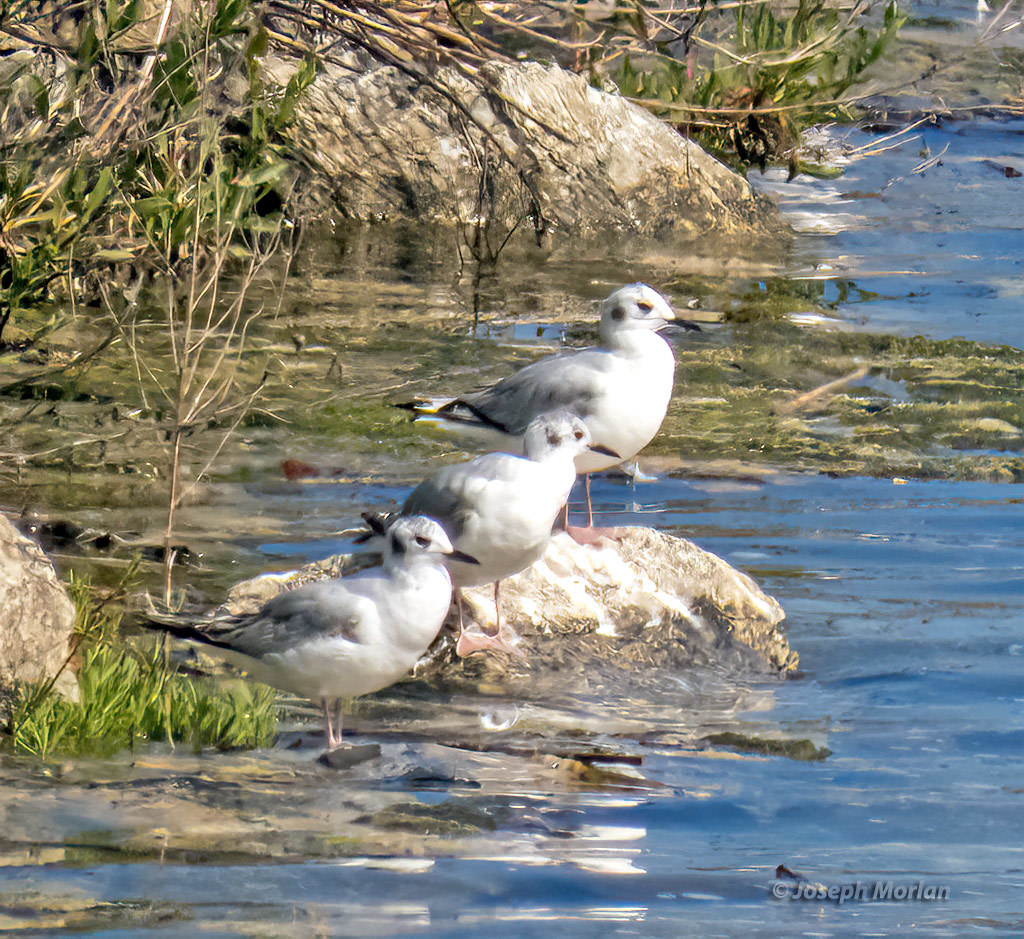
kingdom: Animalia
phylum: Chordata
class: Aves
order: Charadriiformes
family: Laridae
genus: Chroicocephalus
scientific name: Chroicocephalus philadelphia
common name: Bonaparte's gull
